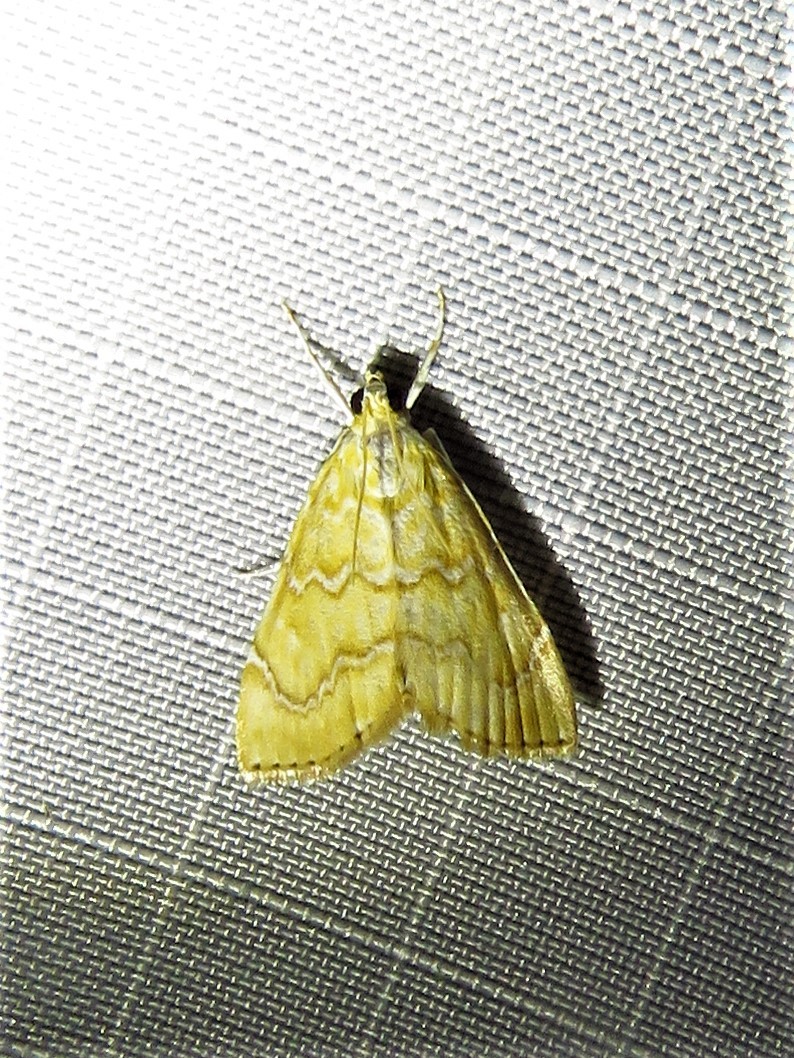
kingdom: Animalia
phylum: Arthropoda
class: Insecta
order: Lepidoptera
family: Crambidae
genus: Glaphyria
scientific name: Glaphyria sesquistrialis
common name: White-roped glaphyria
